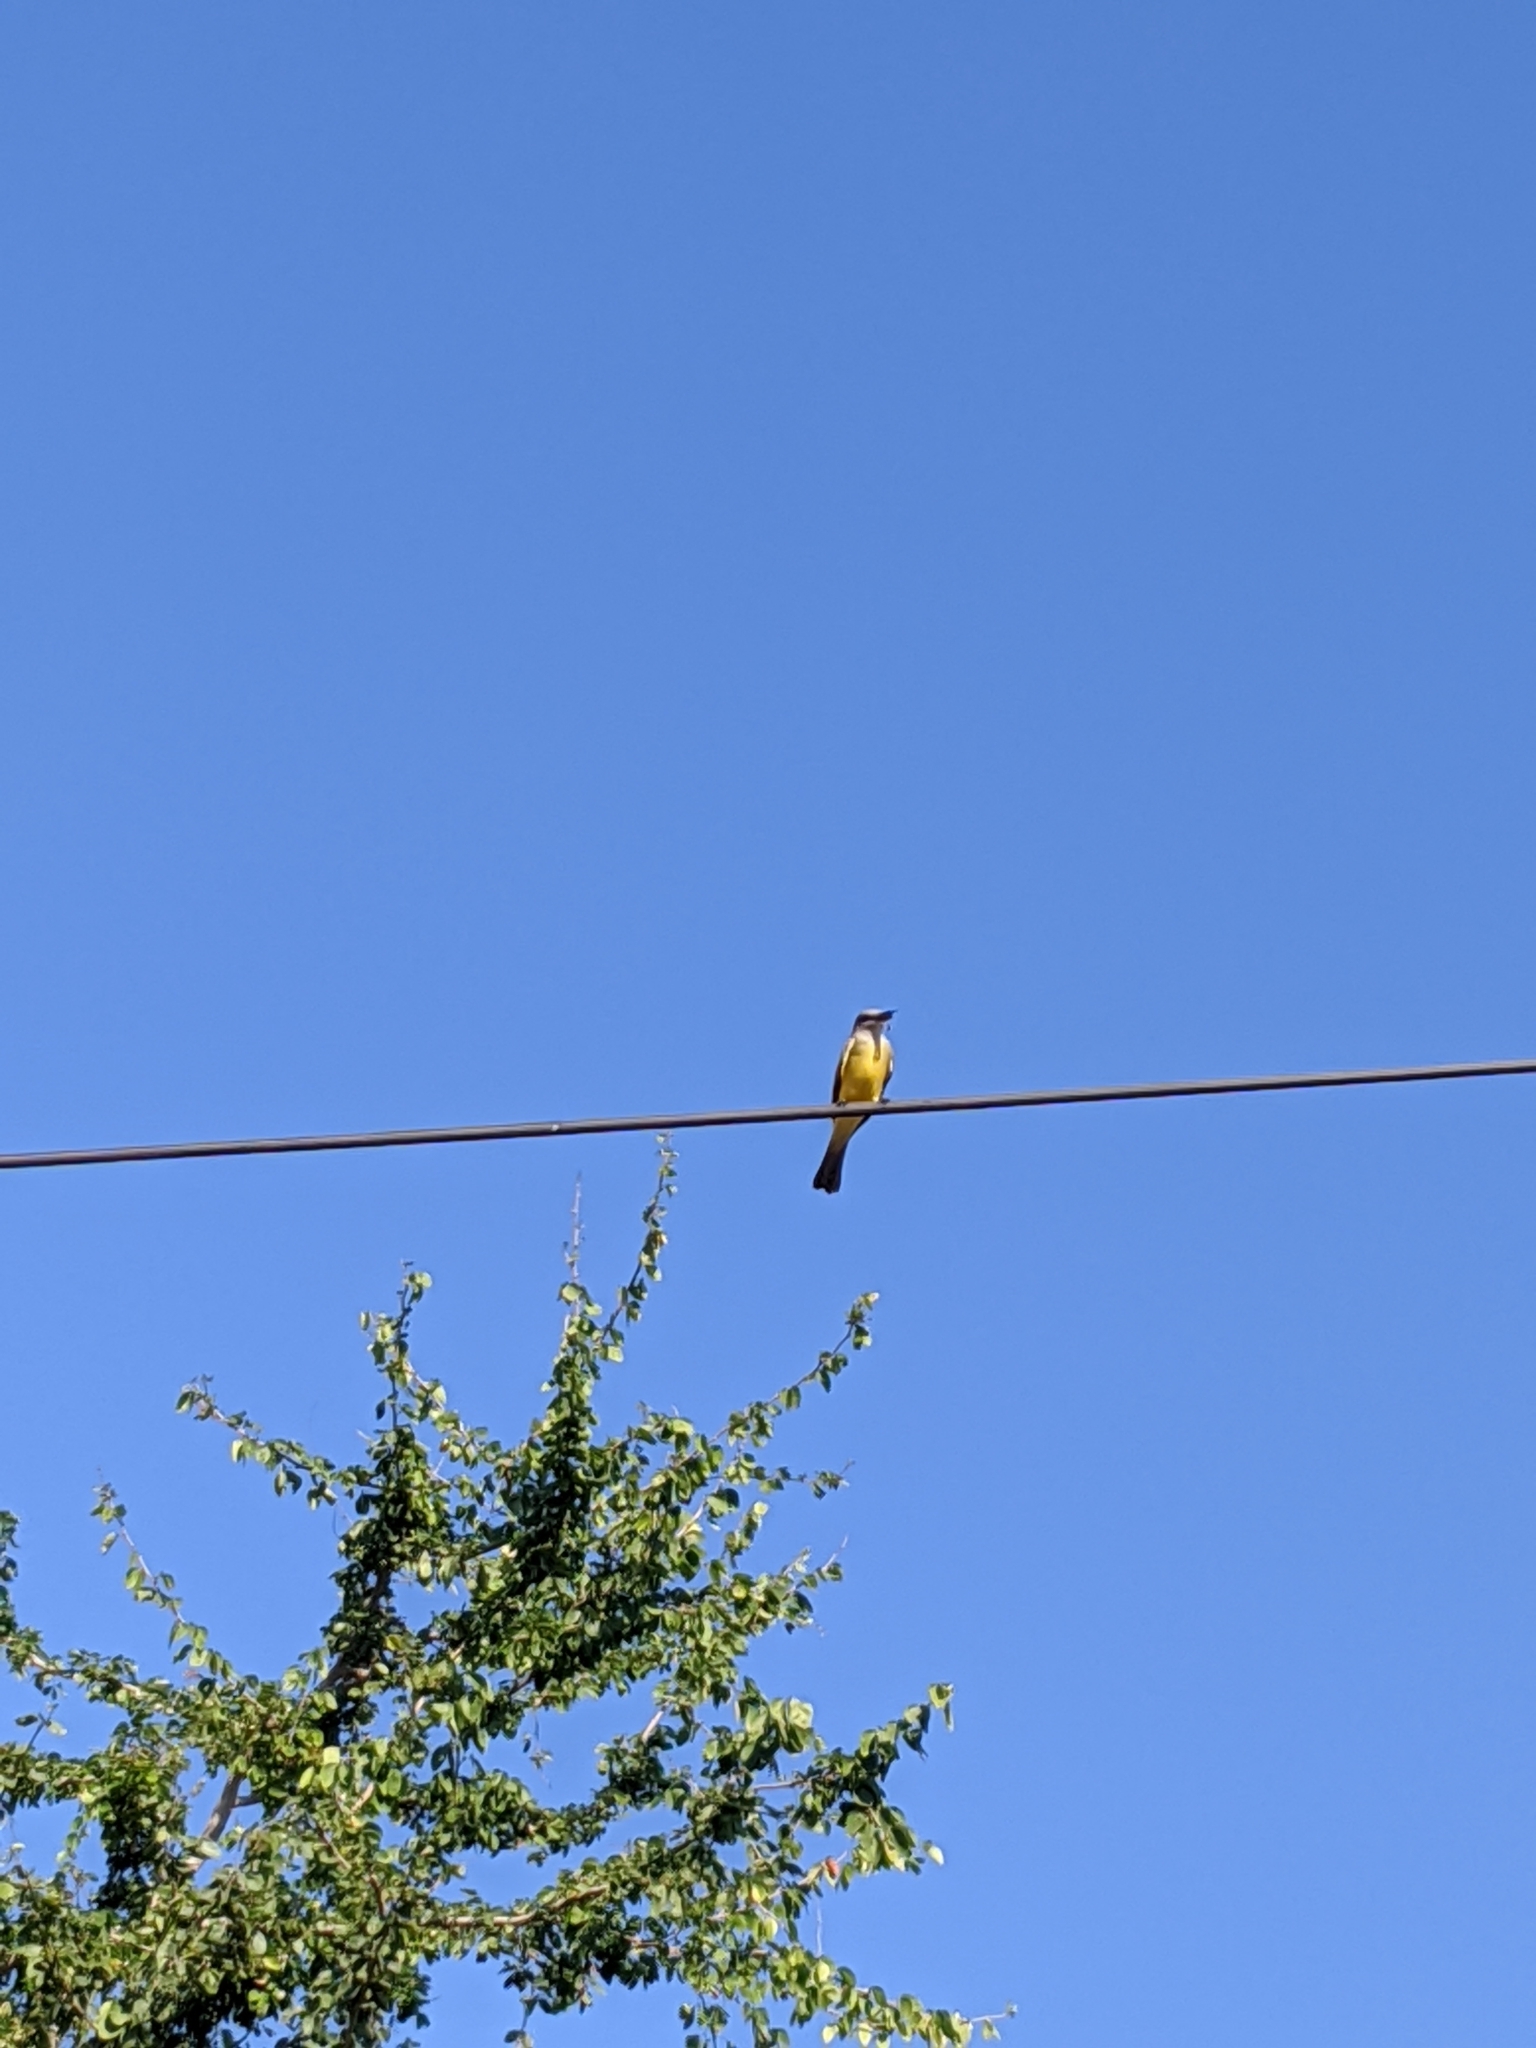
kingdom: Animalia
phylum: Chordata
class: Aves
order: Passeriformes
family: Tyrannidae
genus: Tyrannus
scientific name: Tyrannus melancholicus
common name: Tropical kingbird
